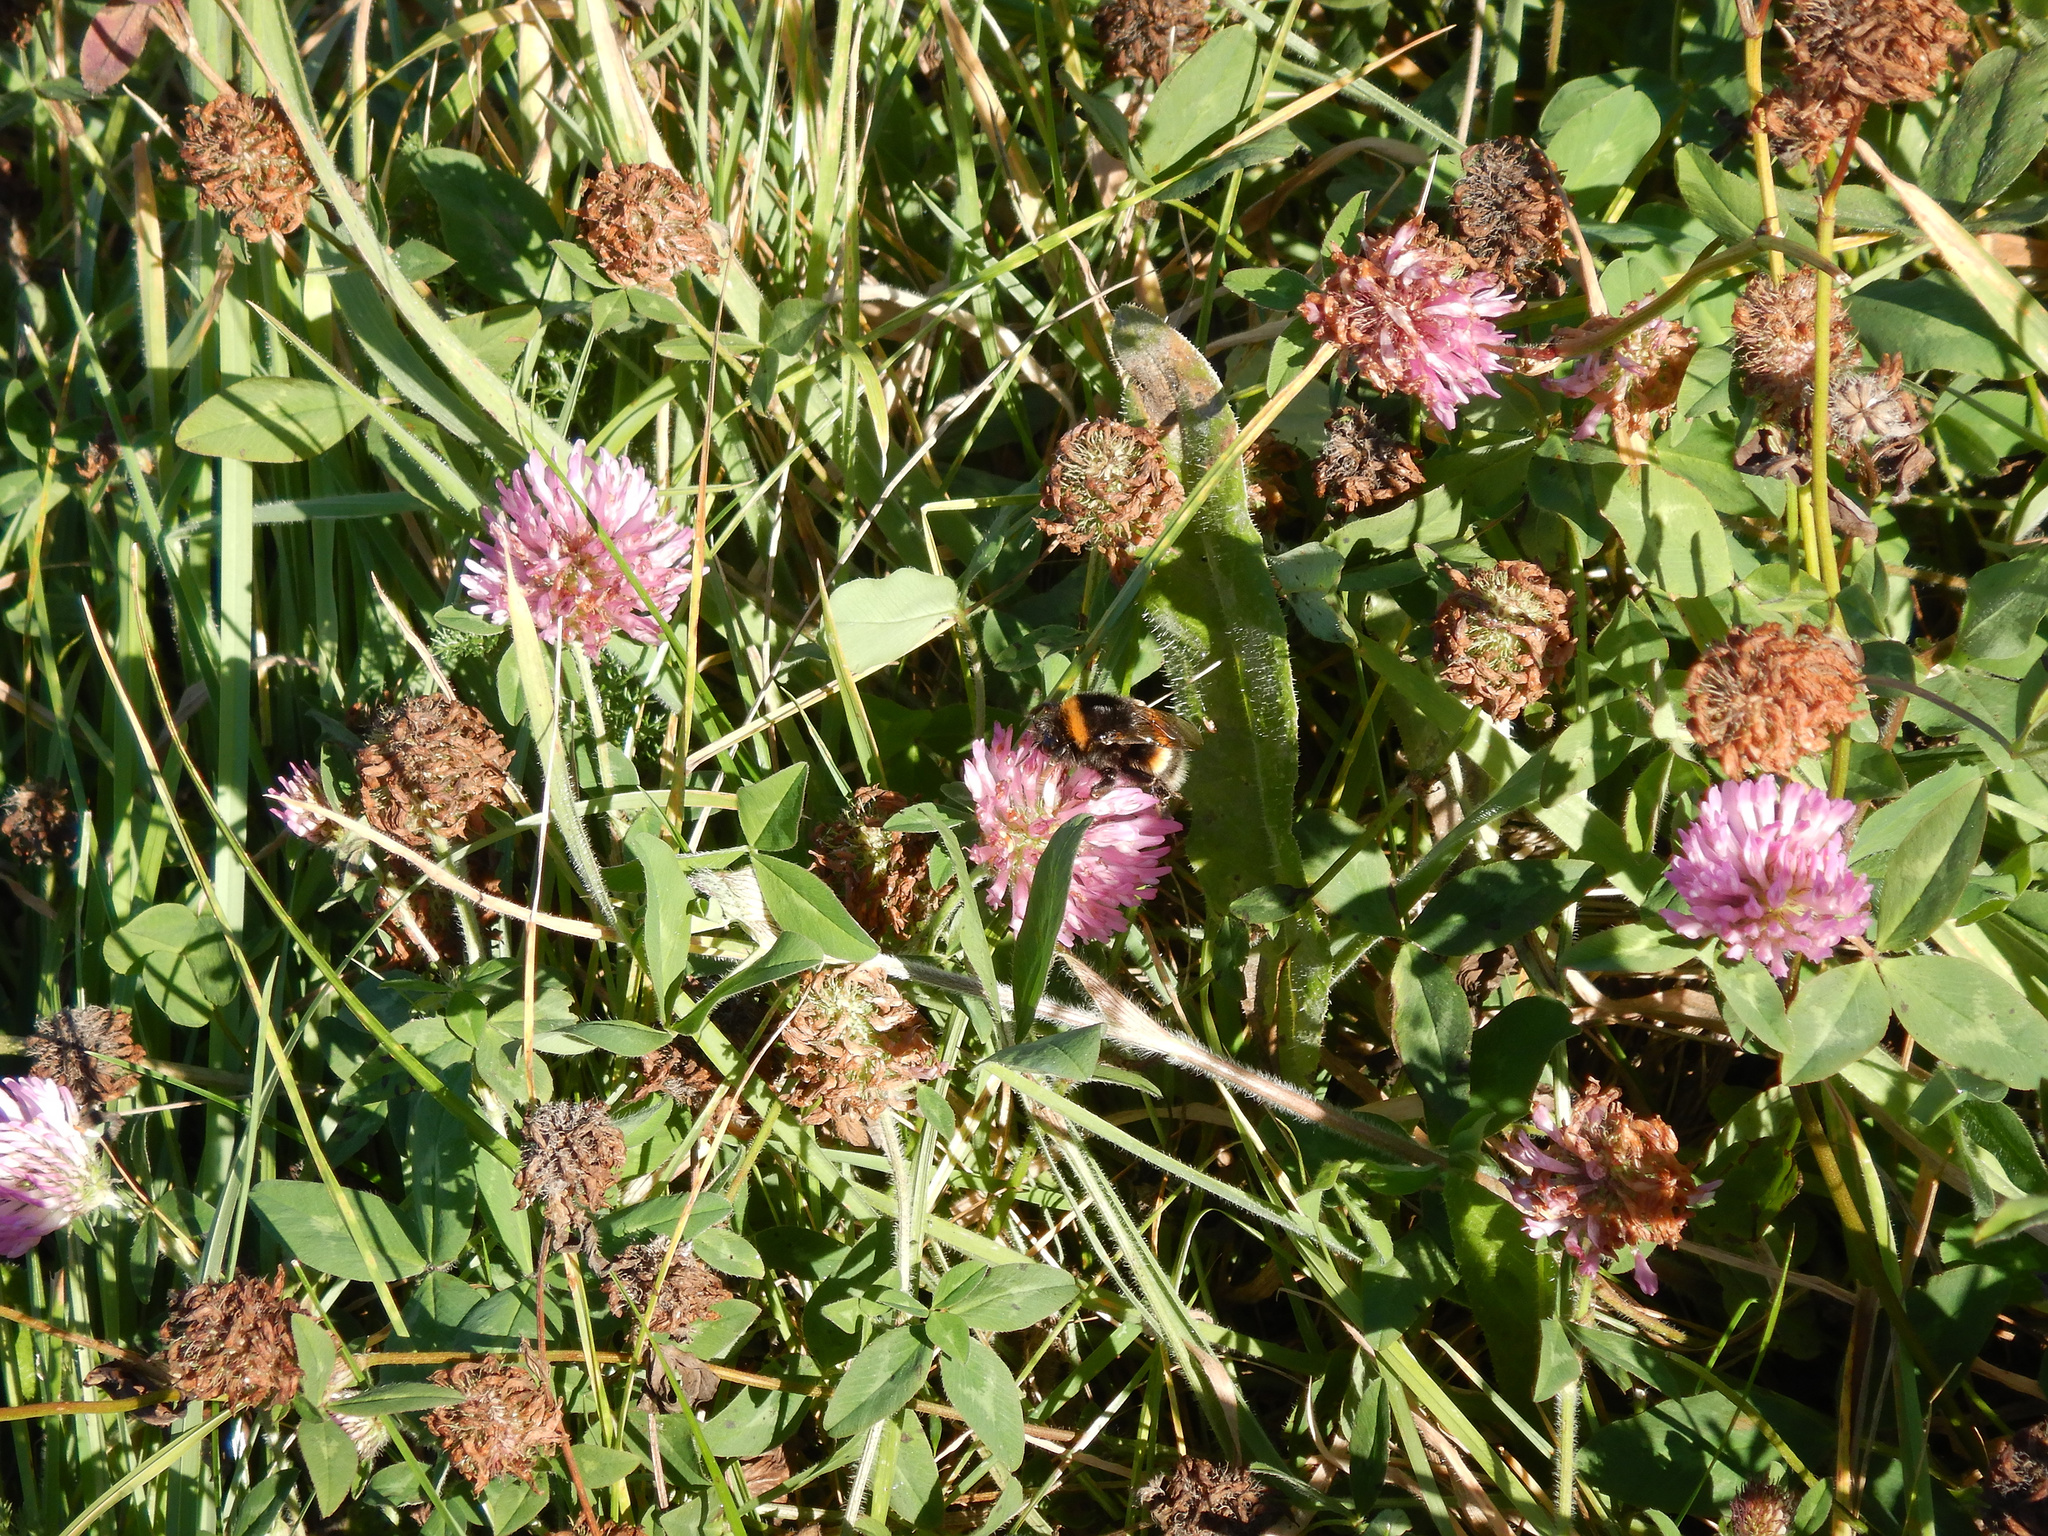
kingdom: Animalia
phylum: Arthropoda
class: Insecta
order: Hymenoptera
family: Apidae
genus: Bombus
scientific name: Bombus terrestris
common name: Buff-tailed bumblebee
